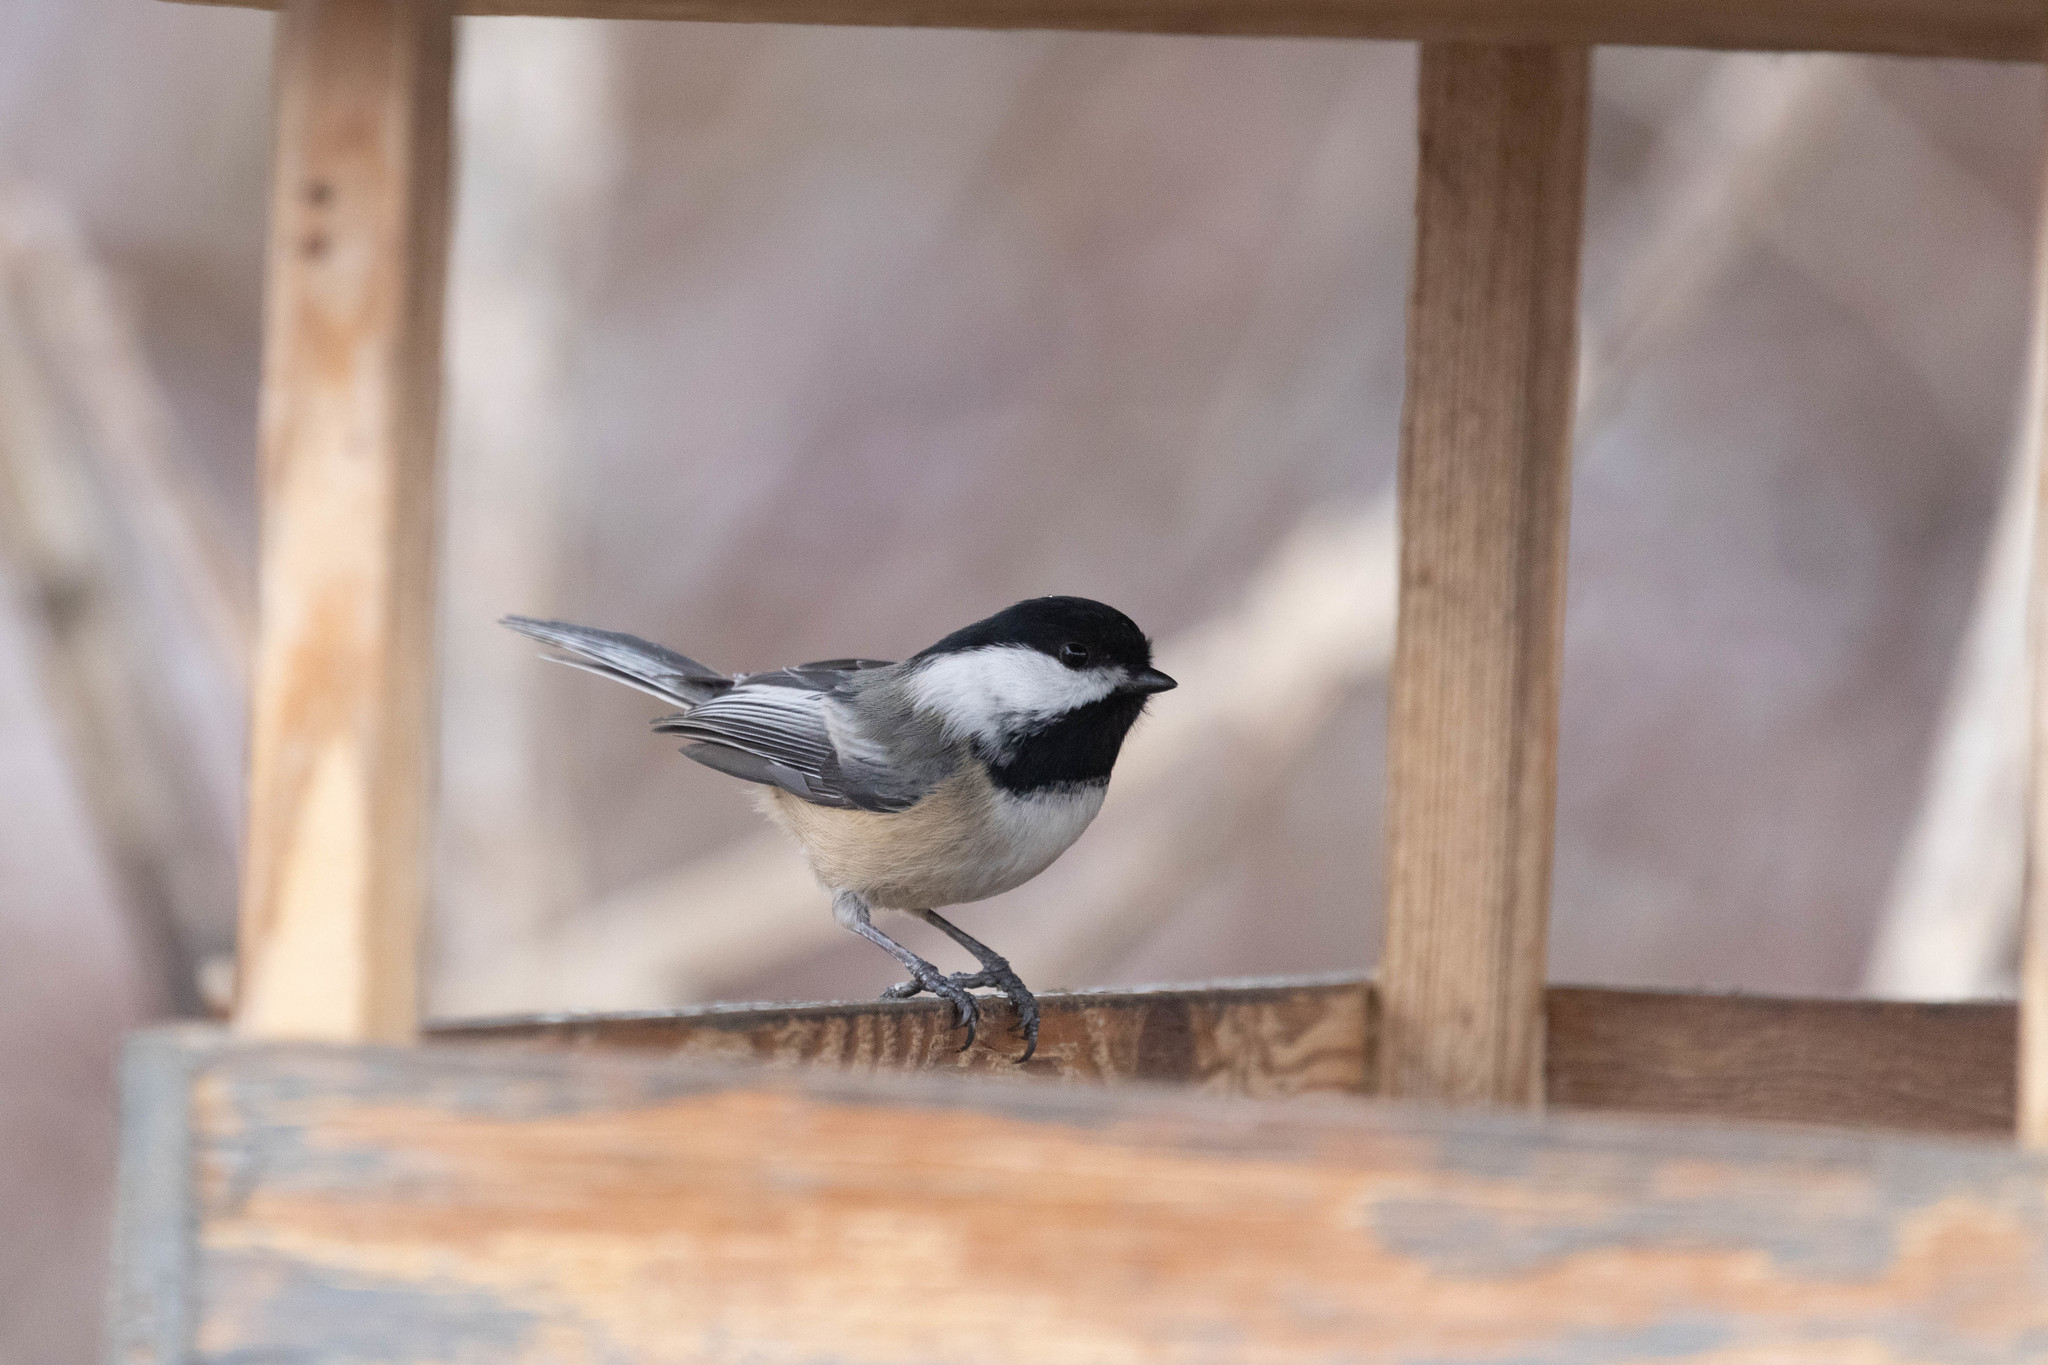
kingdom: Animalia
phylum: Chordata
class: Aves
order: Passeriformes
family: Paridae
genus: Poecile
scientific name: Poecile atricapillus
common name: Black-capped chickadee
